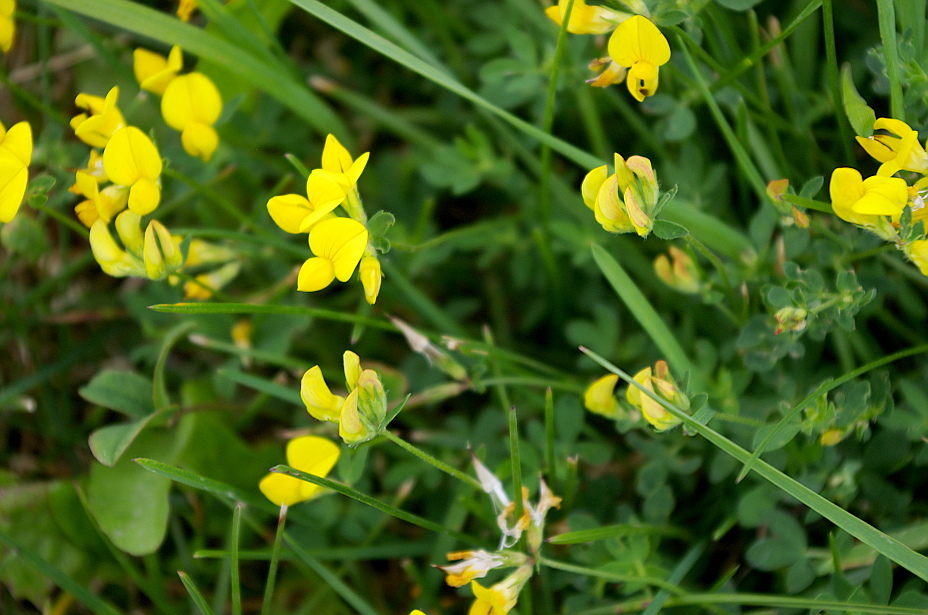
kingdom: Plantae
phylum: Tracheophyta
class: Magnoliopsida
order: Fabales
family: Fabaceae
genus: Lotus
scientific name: Lotus corniculatus
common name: Common bird's-foot-trefoil
